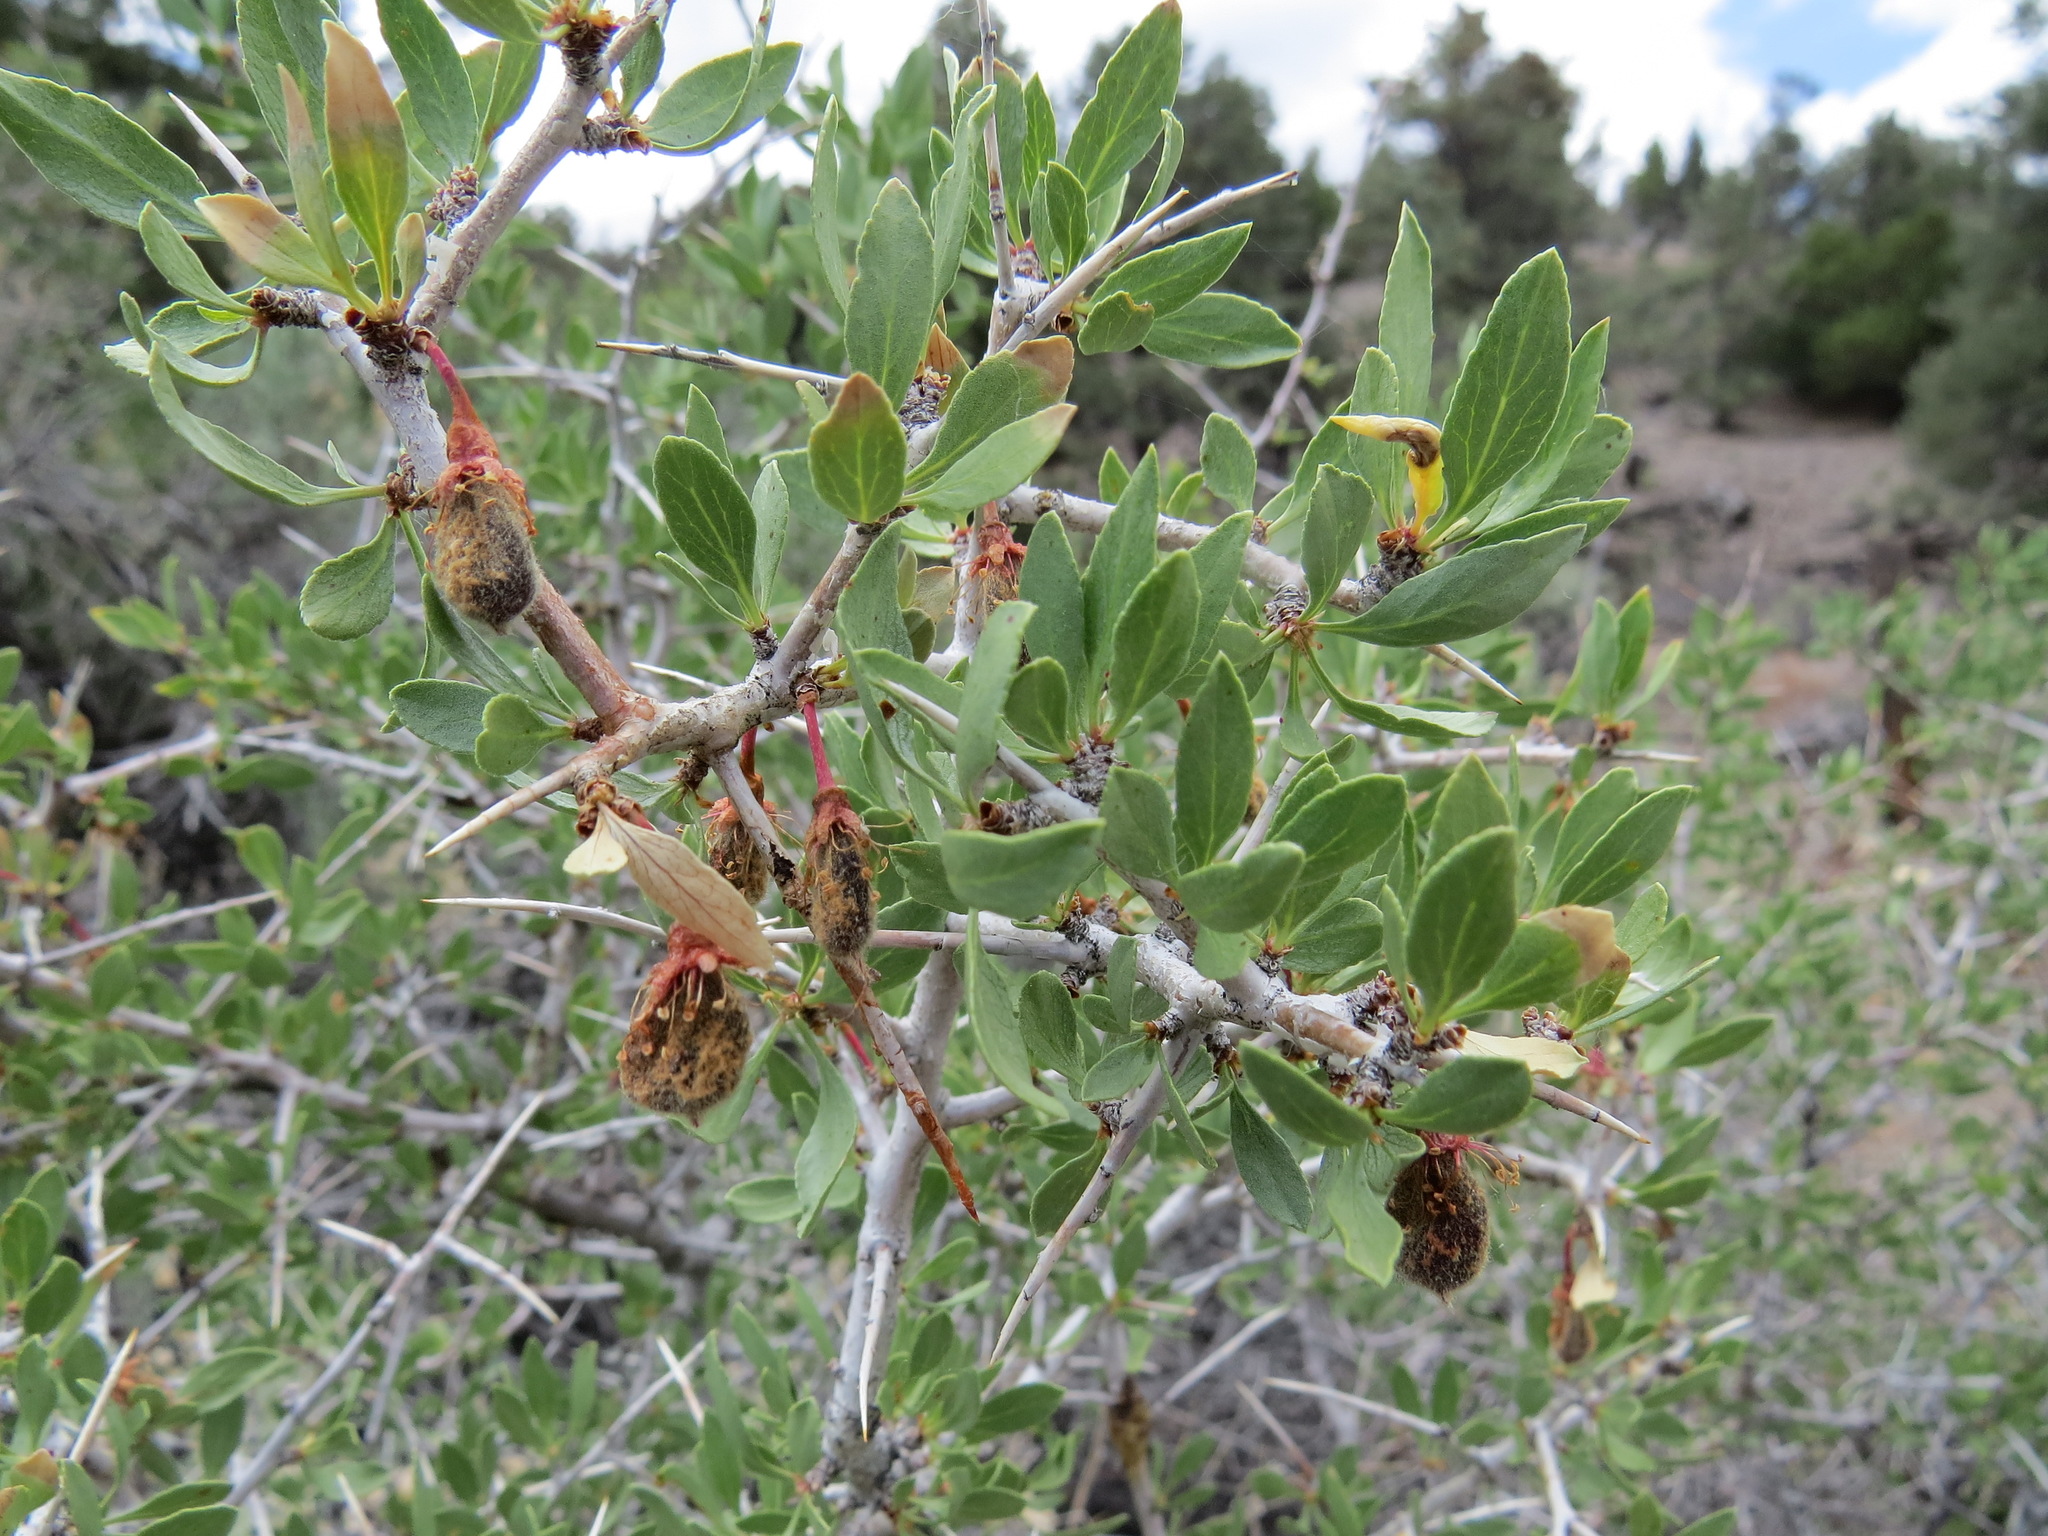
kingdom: Plantae
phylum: Tracheophyta
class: Magnoliopsida
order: Rosales
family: Rosaceae
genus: Prunus
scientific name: Prunus andersonii
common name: Desert peach
